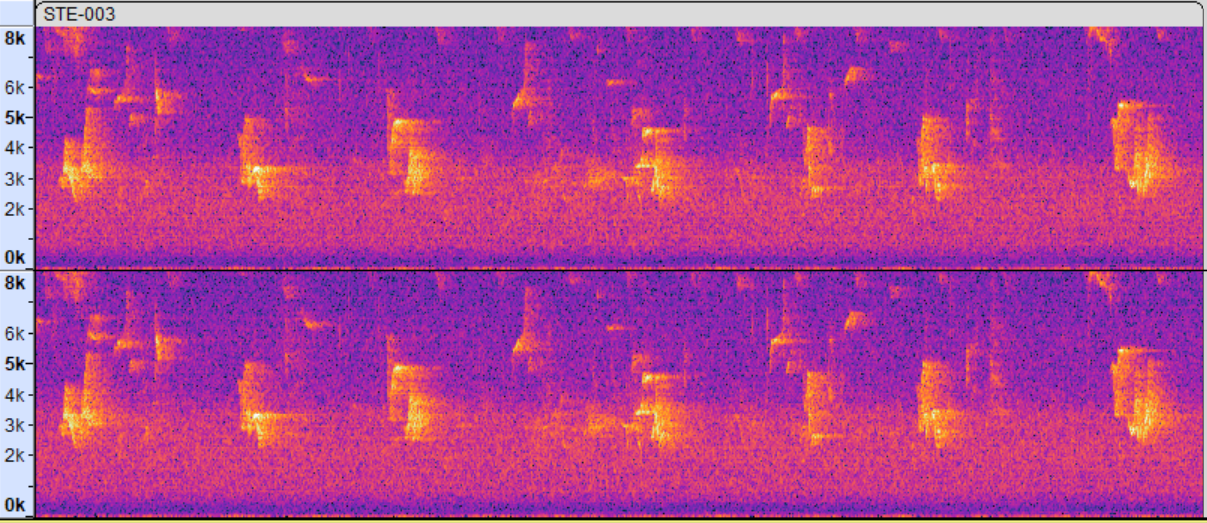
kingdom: Animalia
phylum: Chordata
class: Aves
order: Passeriformes
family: Vireonidae
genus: Vireo
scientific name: Vireo olivaceus
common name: Red-eyed vireo
